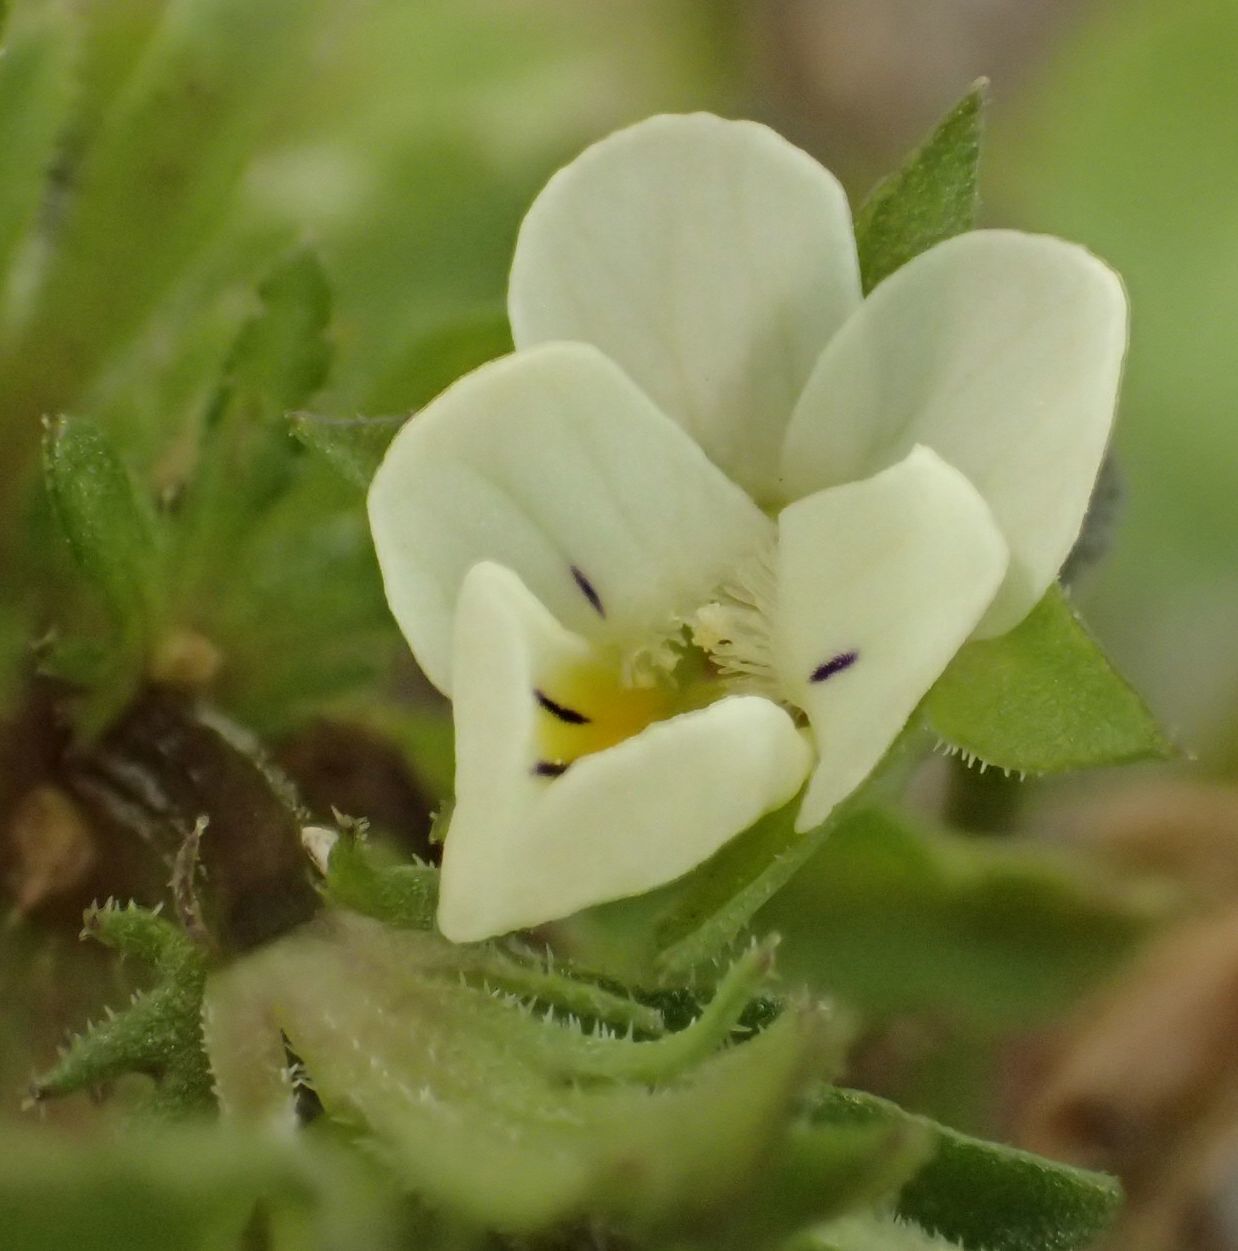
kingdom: Plantae
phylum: Tracheophyta
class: Magnoliopsida
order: Malpighiales
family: Violaceae
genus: Viola
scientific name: Viola arvensis
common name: Field pansy
